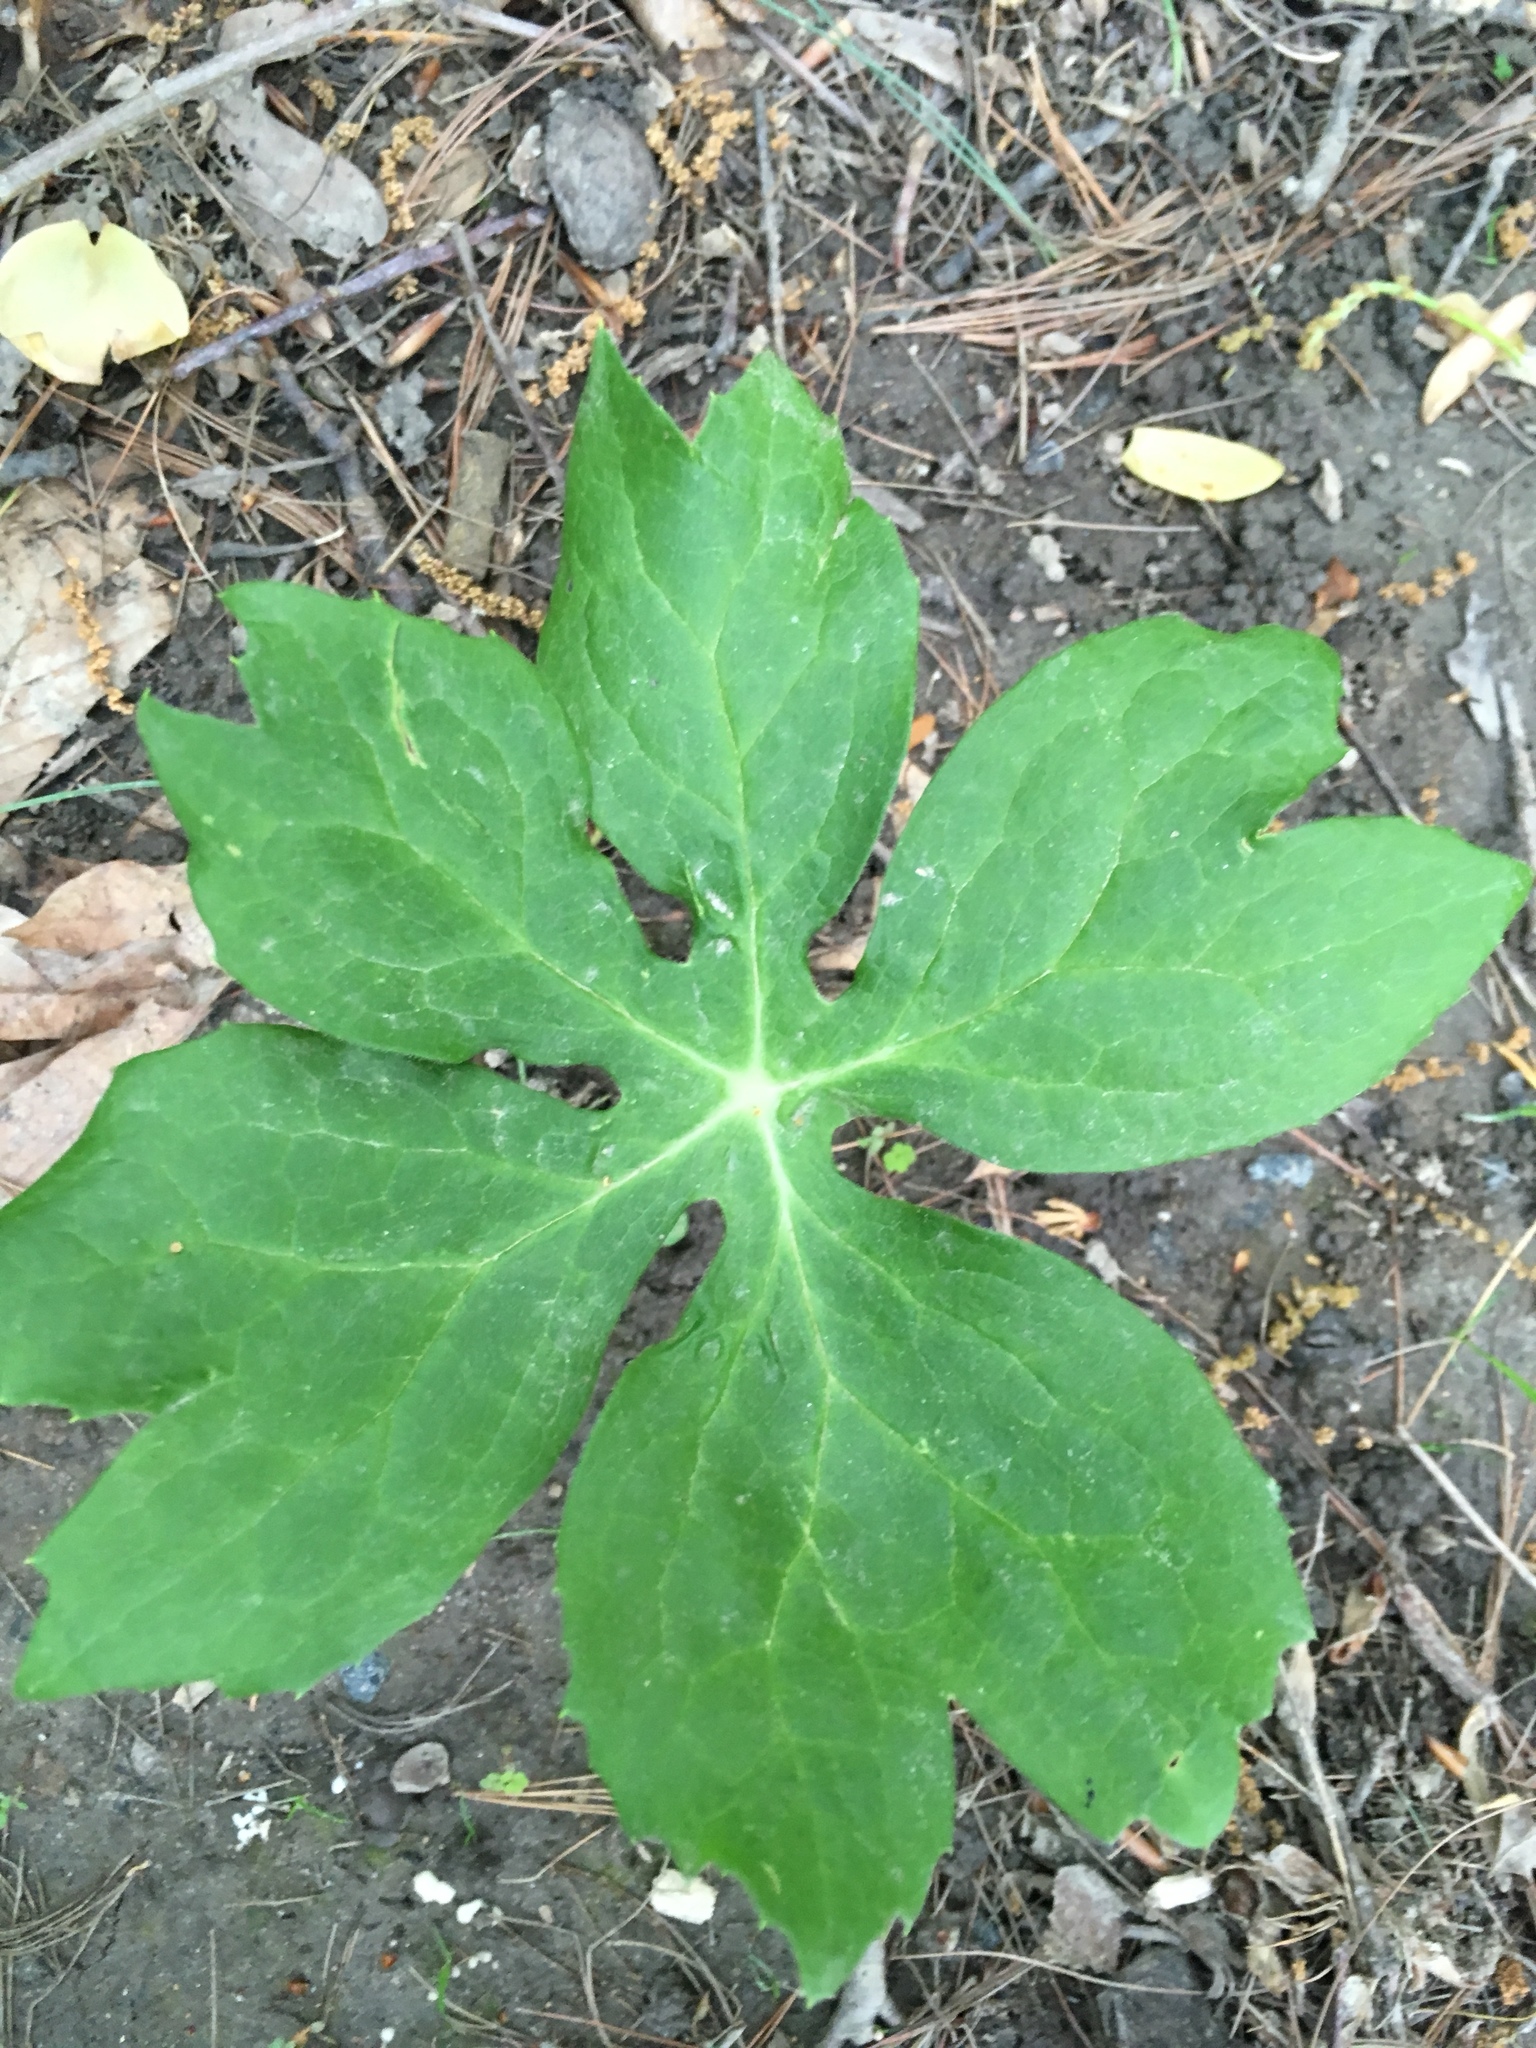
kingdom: Plantae
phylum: Tracheophyta
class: Magnoliopsida
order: Ranunculales
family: Berberidaceae
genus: Podophyllum
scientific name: Podophyllum peltatum
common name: Wild mandrake
